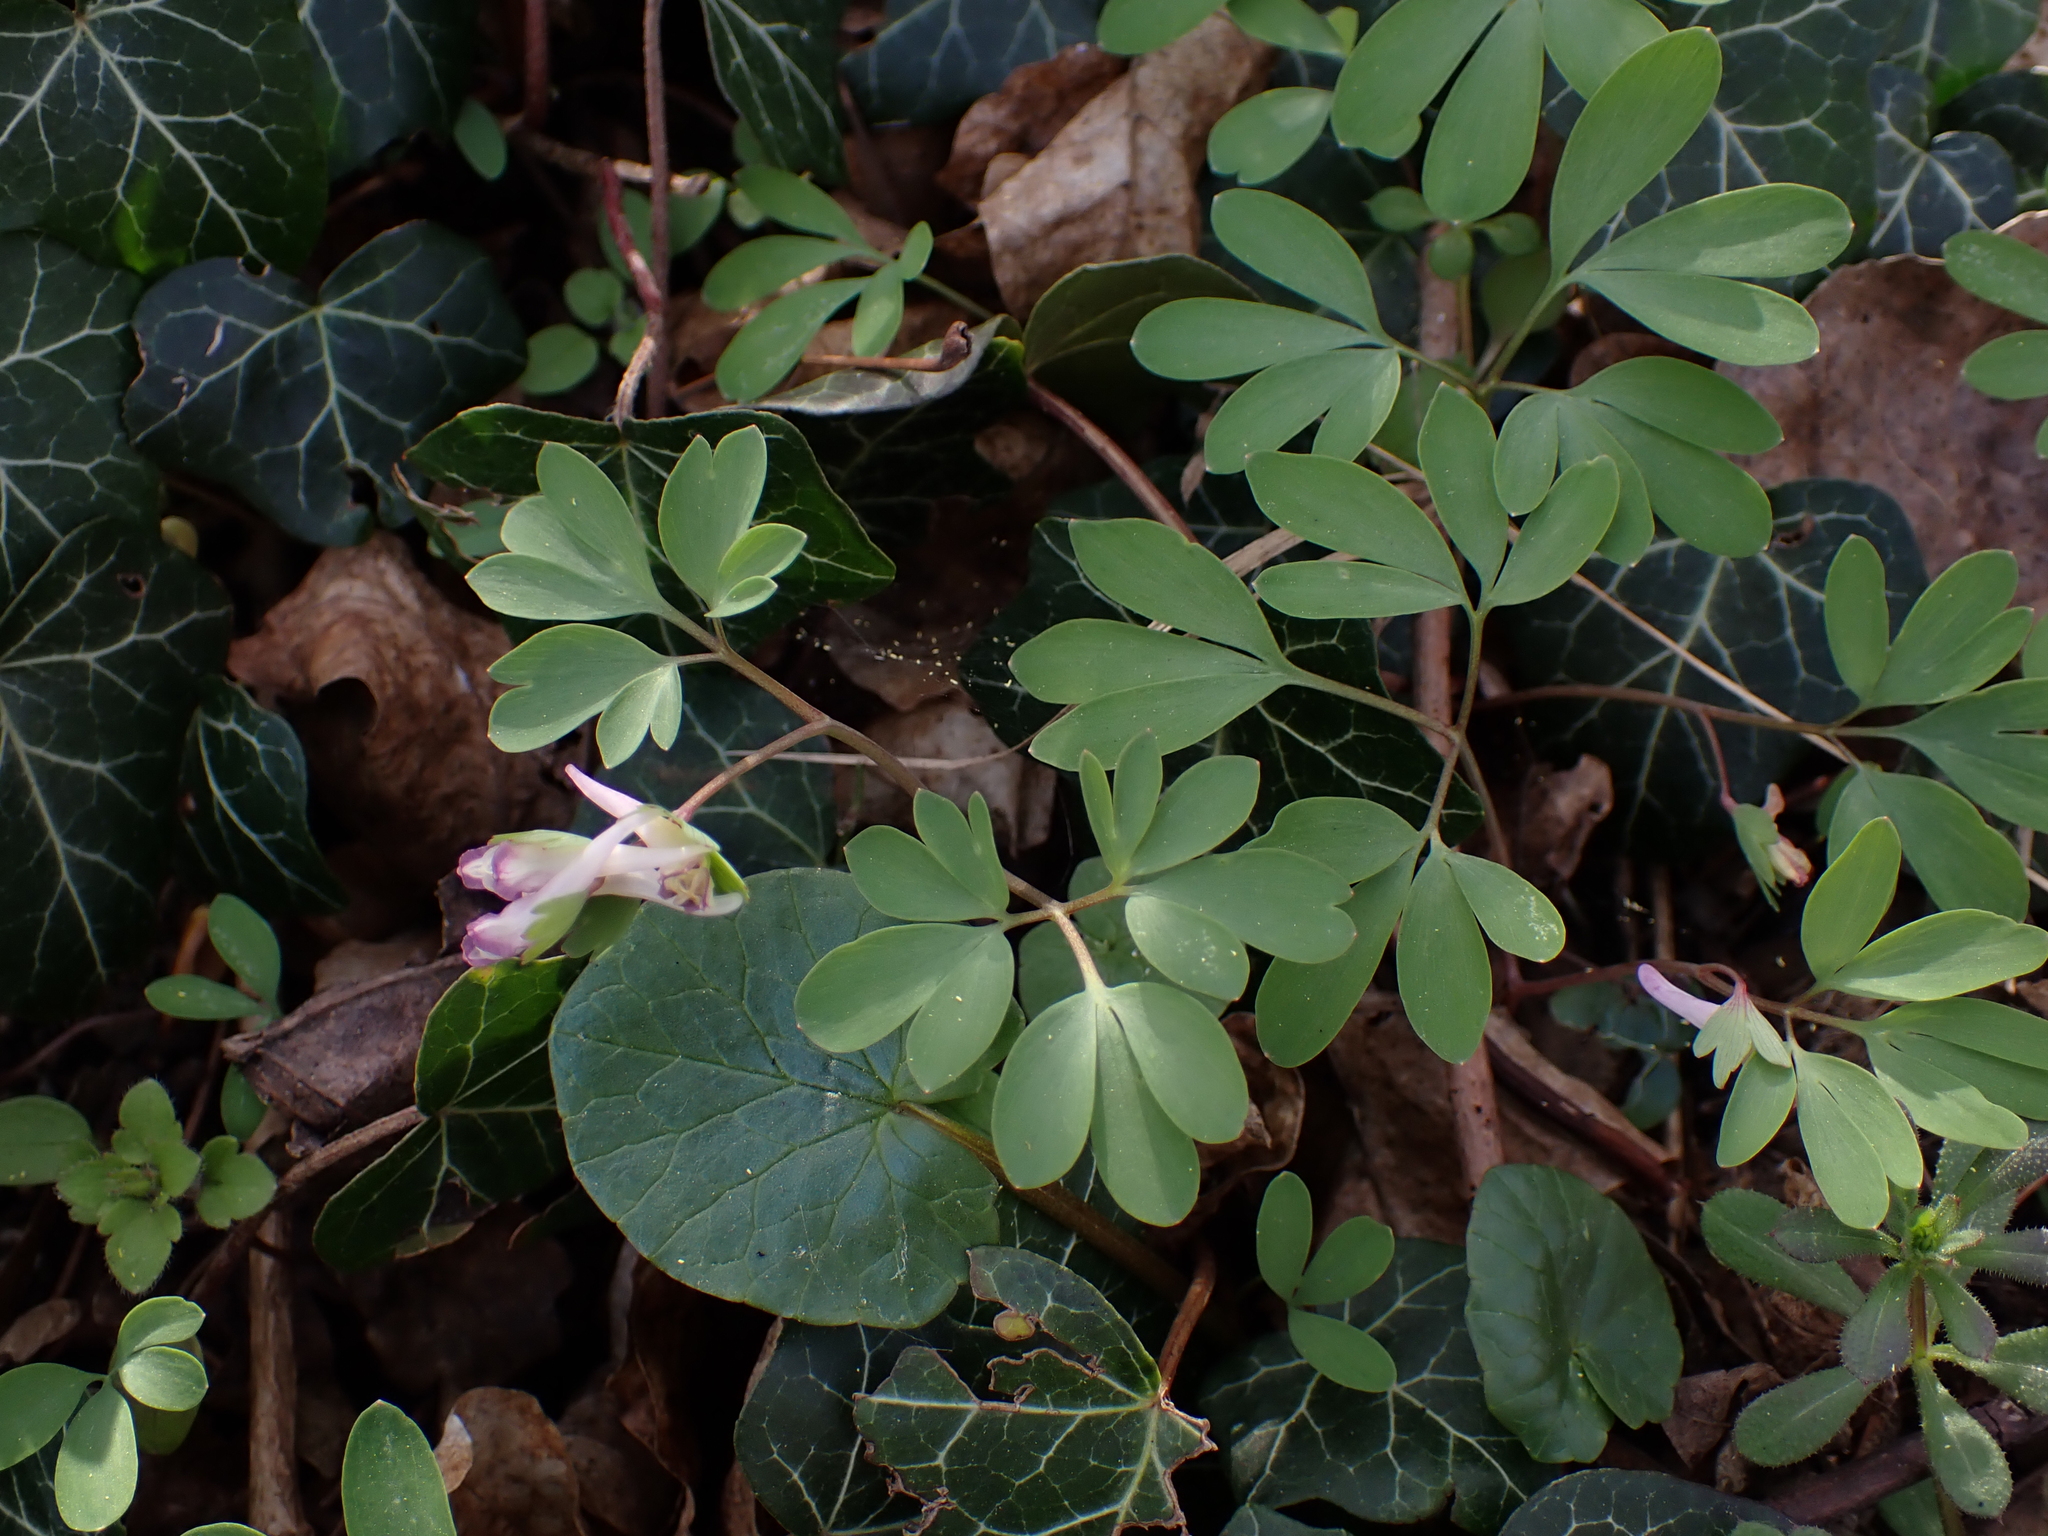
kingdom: Plantae
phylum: Tracheophyta
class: Magnoliopsida
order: Ranunculales
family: Papaveraceae
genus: Corydalis
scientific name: Corydalis pumila
